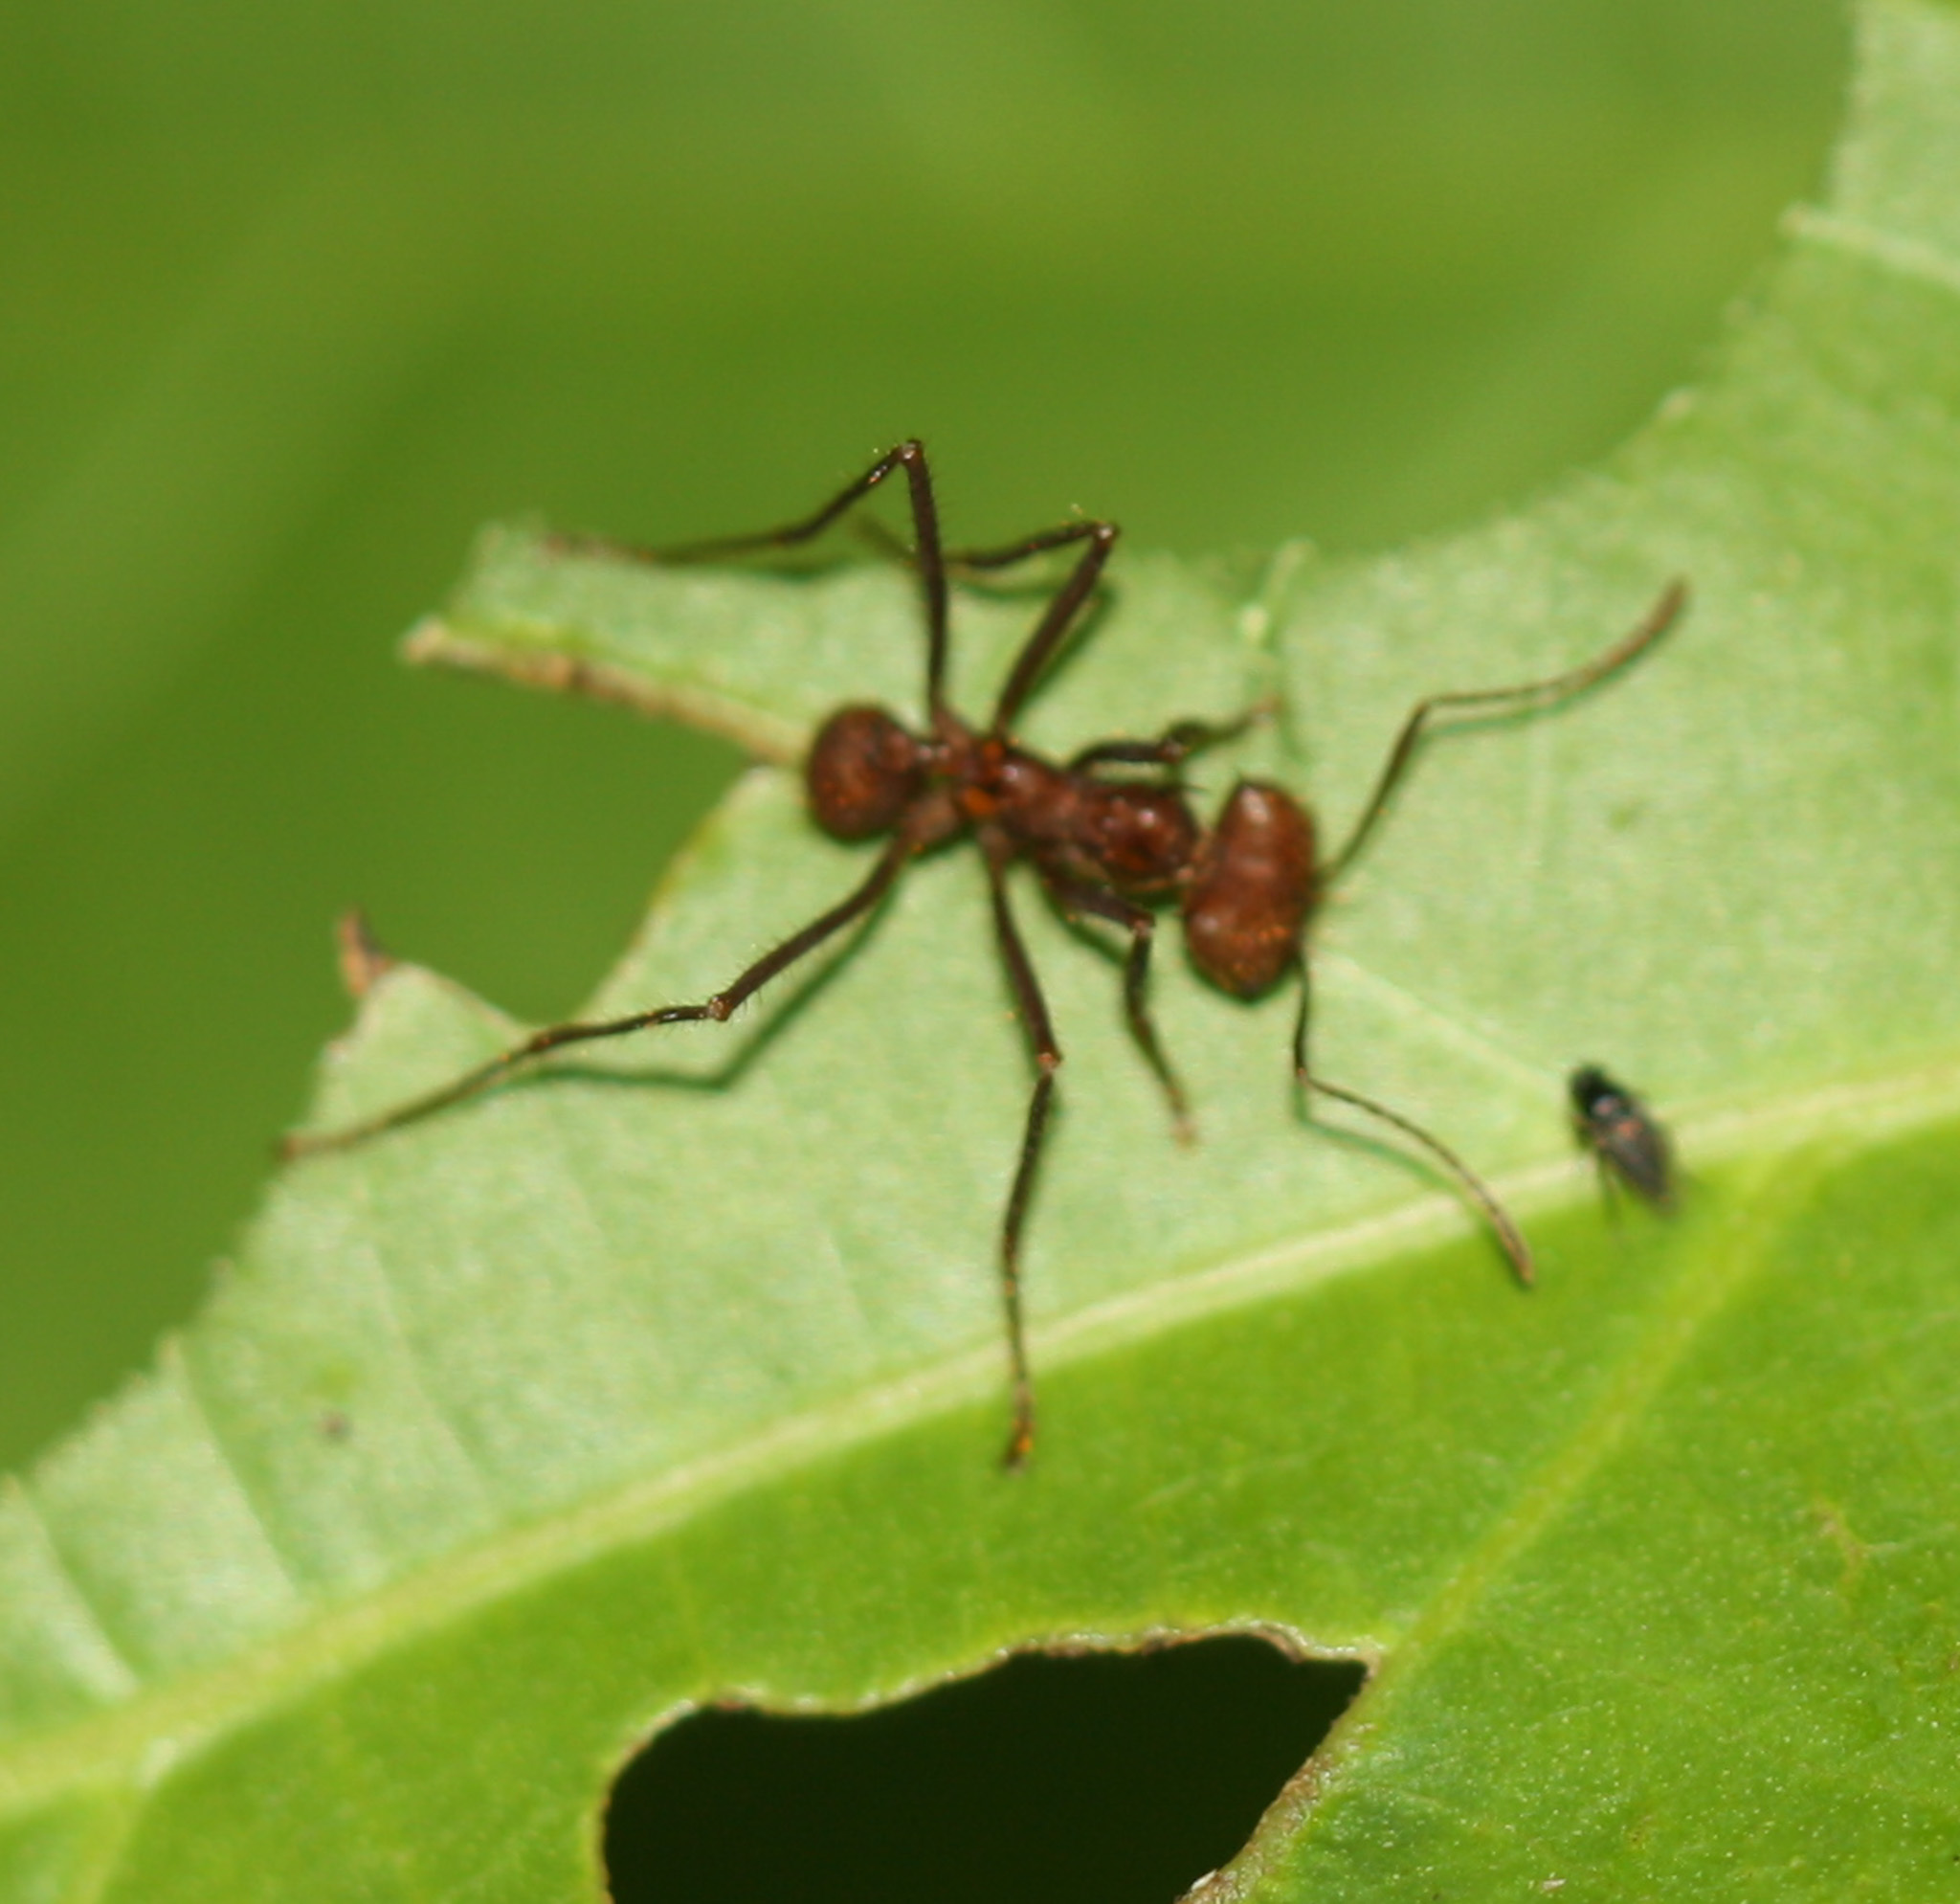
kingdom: Animalia
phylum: Arthropoda
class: Insecta
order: Hymenoptera
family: Formicidae
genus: Atta
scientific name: Atta cephalotes
